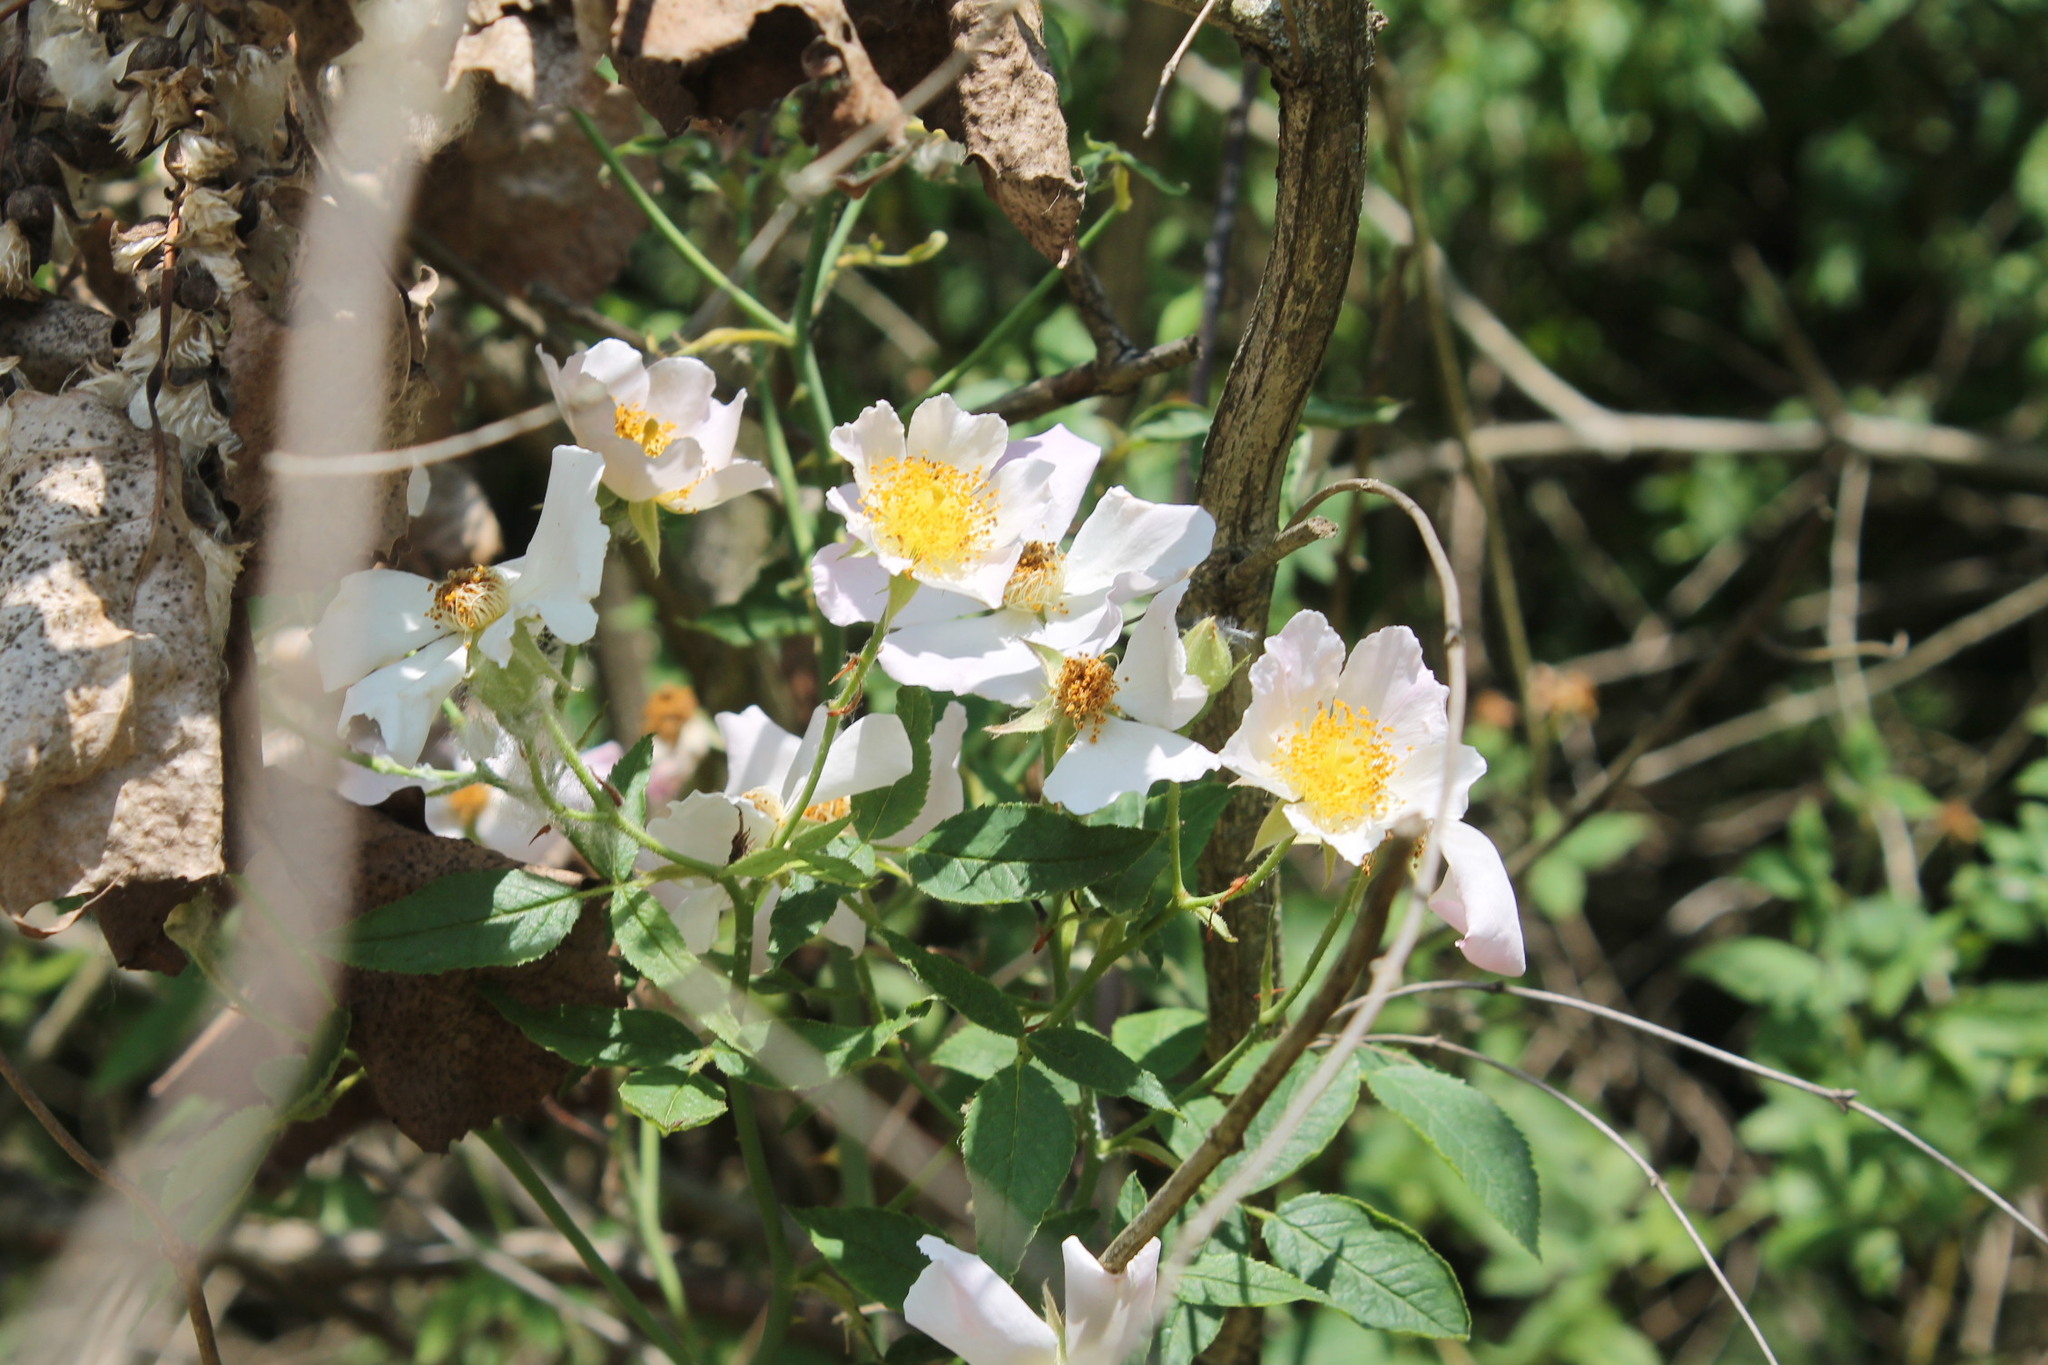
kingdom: Plantae
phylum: Tracheophyta
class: Magnoliopsida
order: Rosales
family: Rosaceae
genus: Rosa
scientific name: Rosa canina
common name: Dog rose
